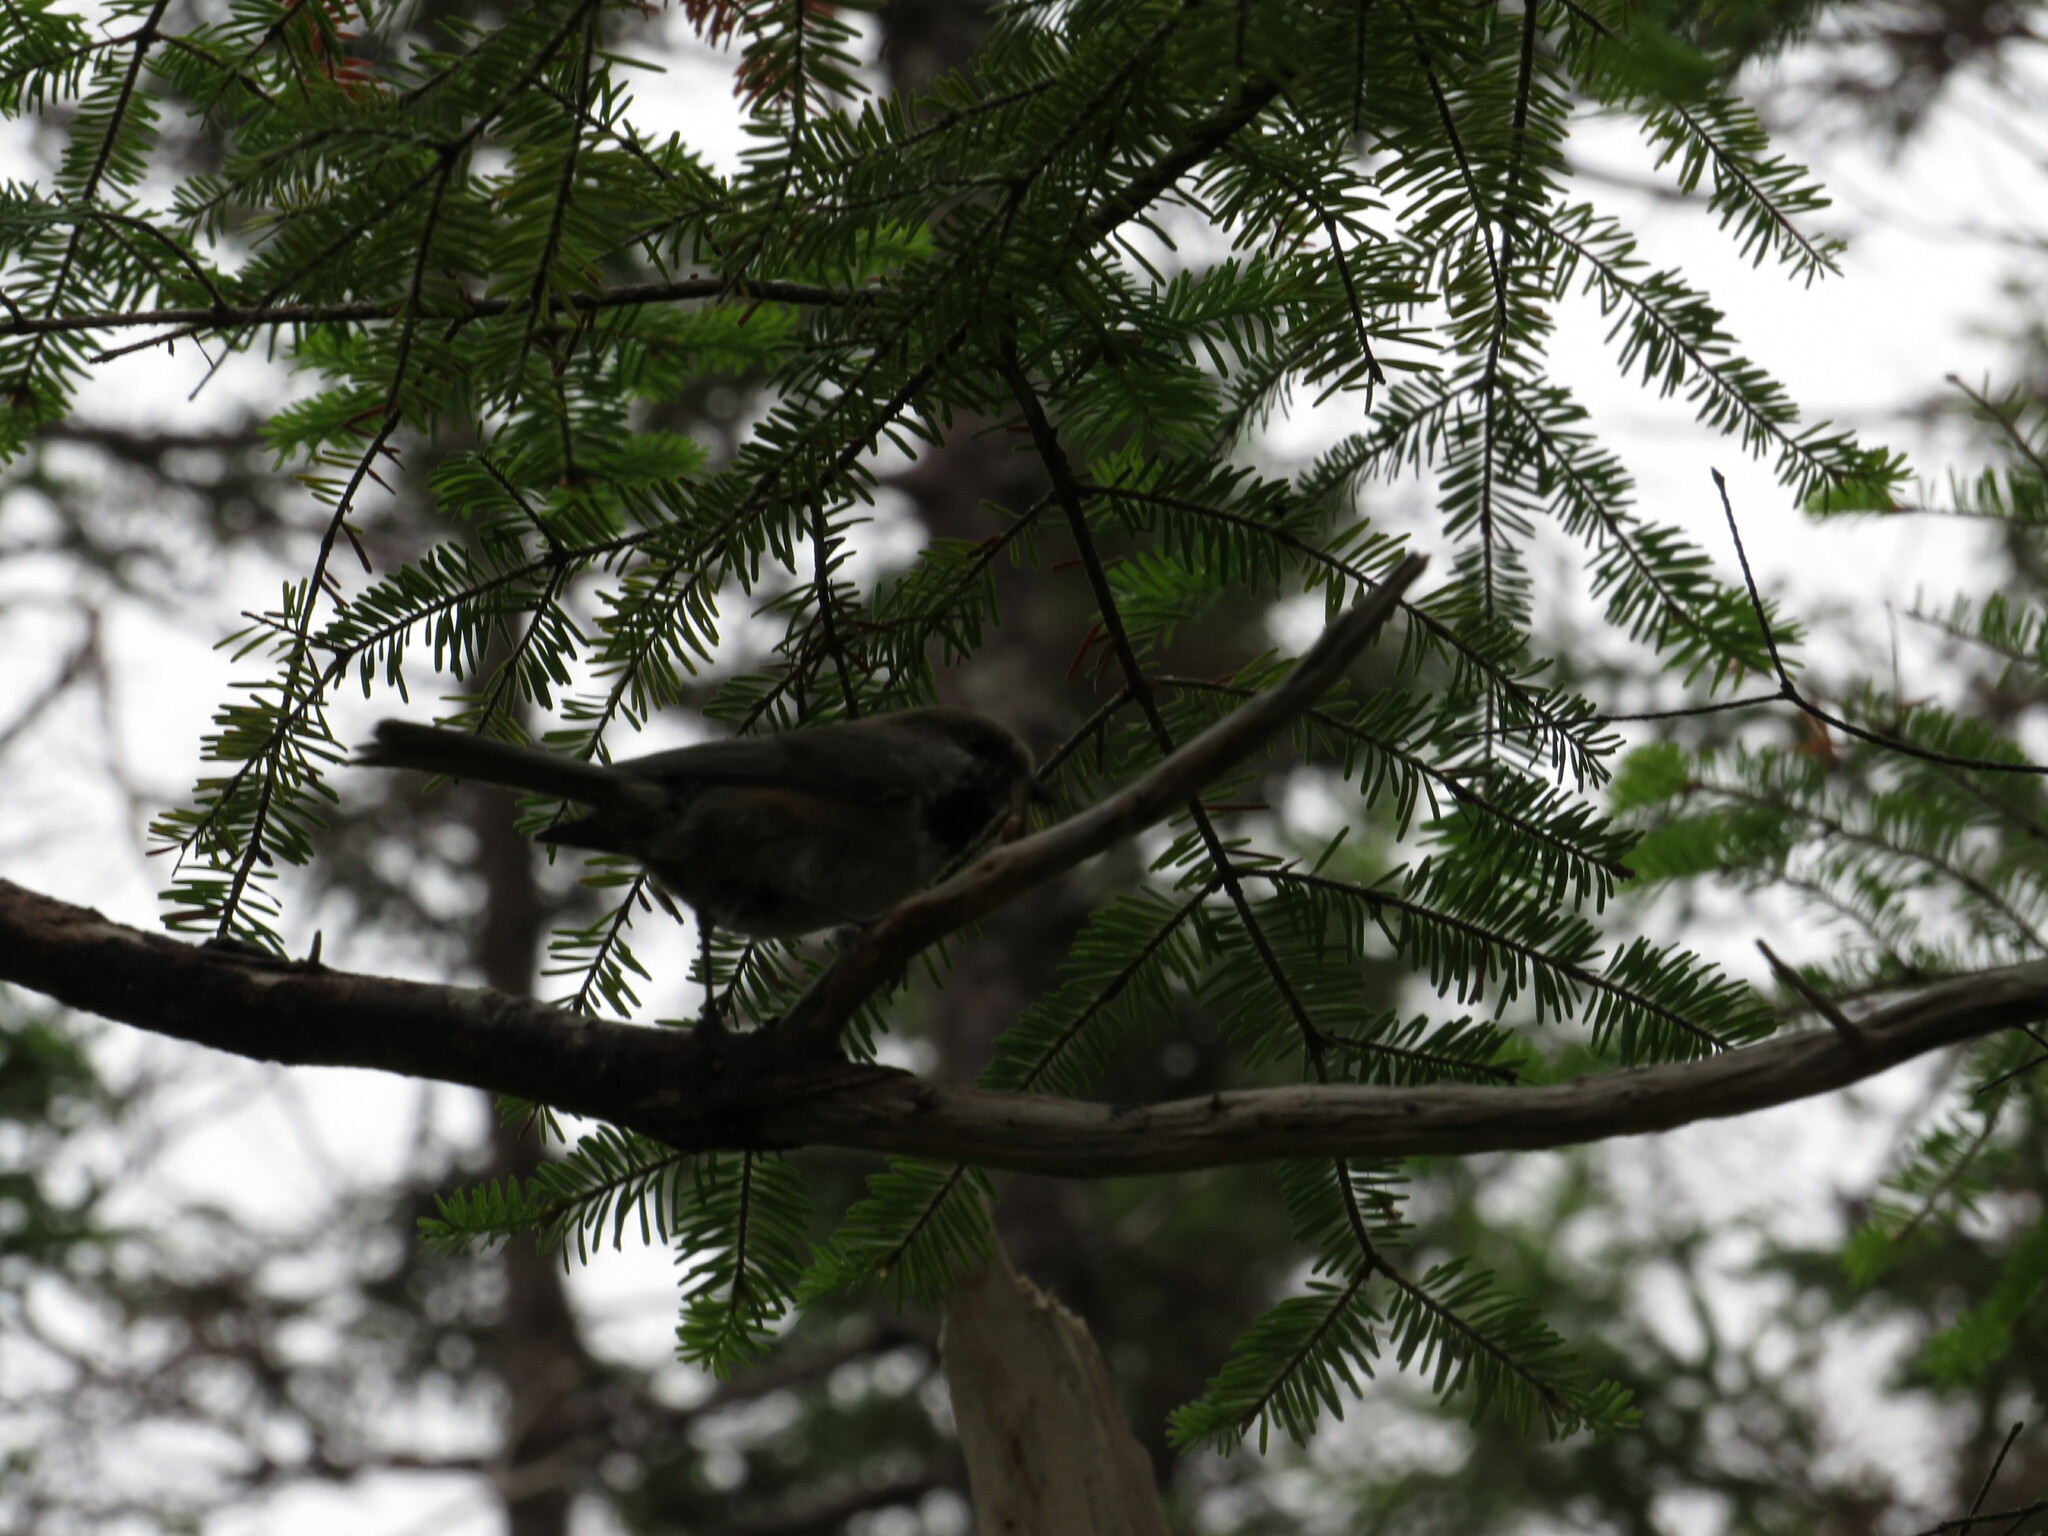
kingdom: Animalia
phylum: Chordata
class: Aves
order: Passeriformes
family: Paridae
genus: Poecile
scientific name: Poecile hudsonicus
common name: Boreal chickadee
